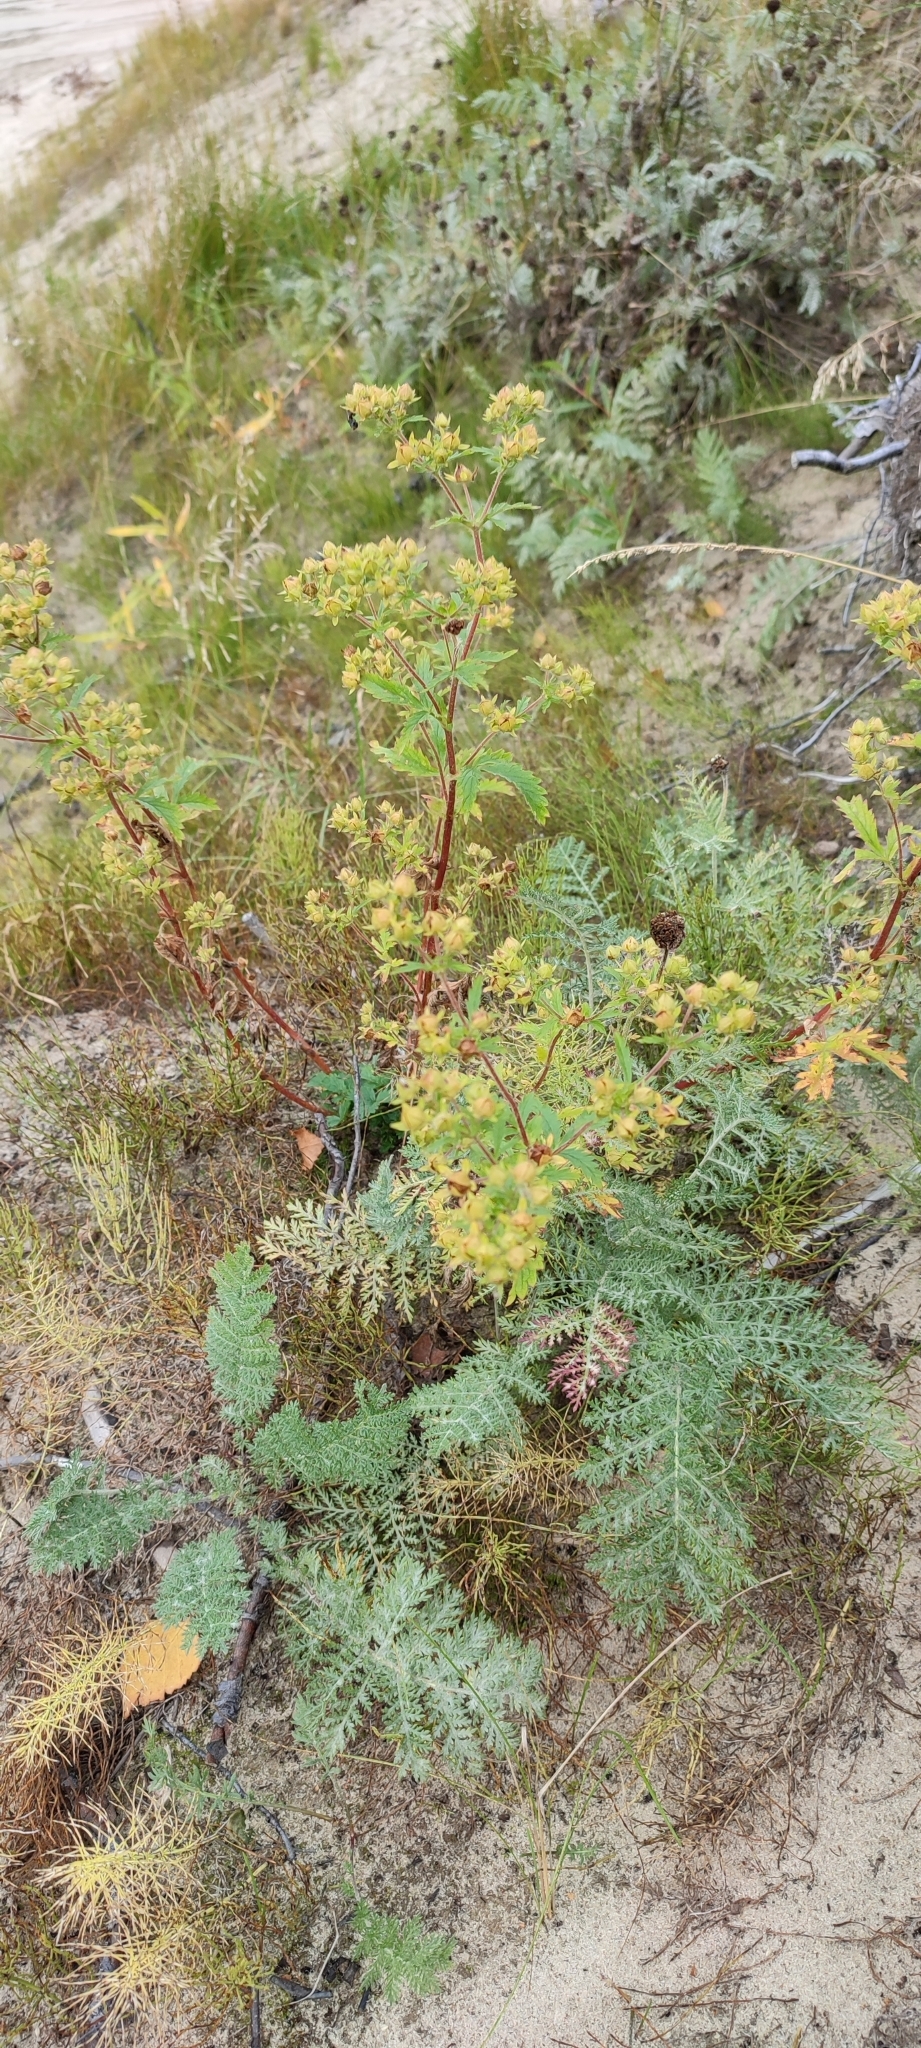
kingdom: Plantae
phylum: Tracheophyta
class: Magnoliopsida
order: Rosales
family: Rosaceae
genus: Potentilla
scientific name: Potentilla norvegica
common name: Ternate-leaved cinquefoil
